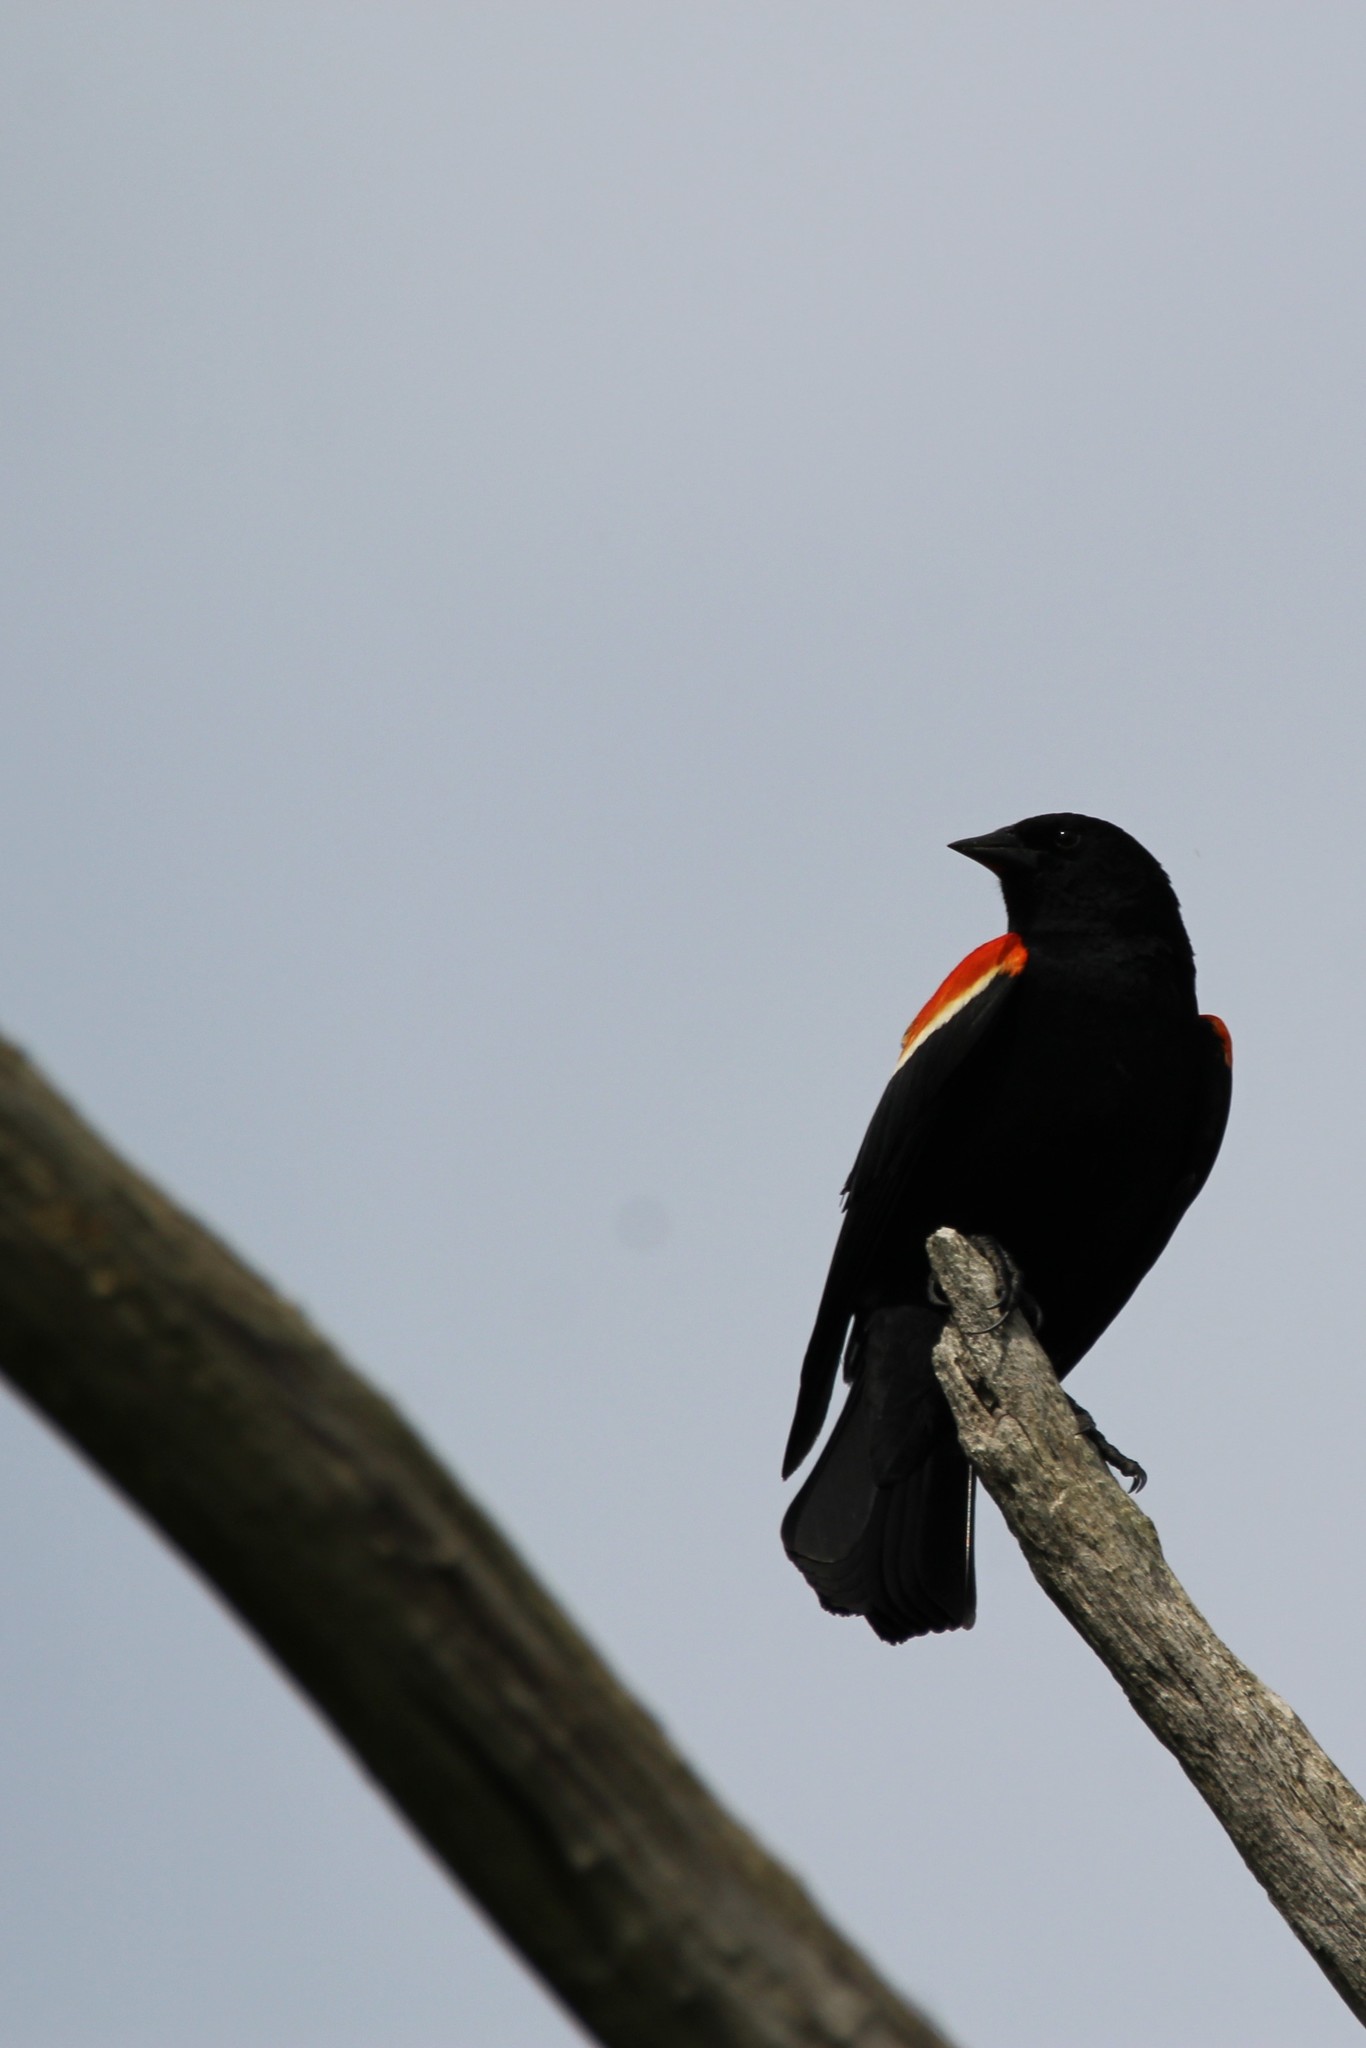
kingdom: Animalia
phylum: Chordata
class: Aves
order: Passeriformes
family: Icteridae
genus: Agelaius
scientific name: Agelaius phoeniceus
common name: Red-winged blackbird
